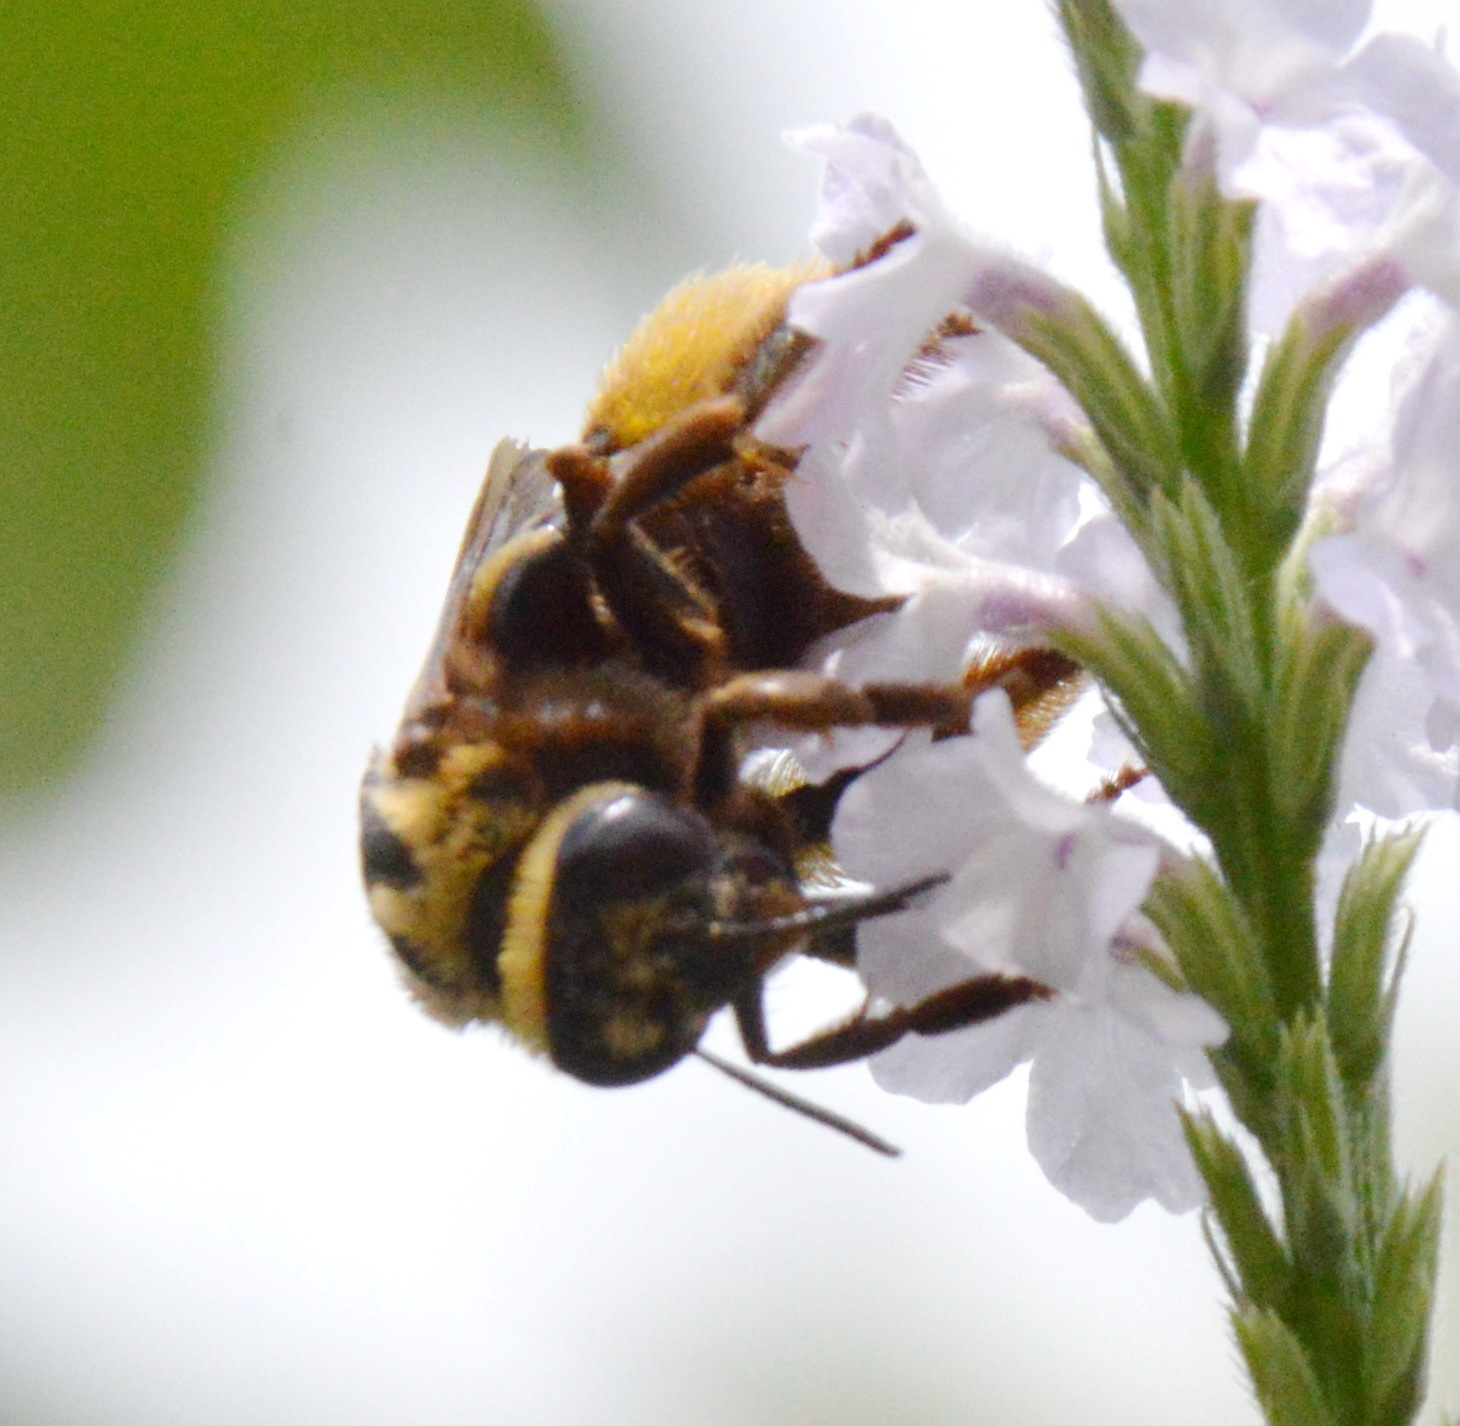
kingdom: Animalia
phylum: Arthropoda
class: Insecta
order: Hymenoptera
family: Apidae
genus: Svastra
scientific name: Svastra obliqua
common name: Oblique longhorn
